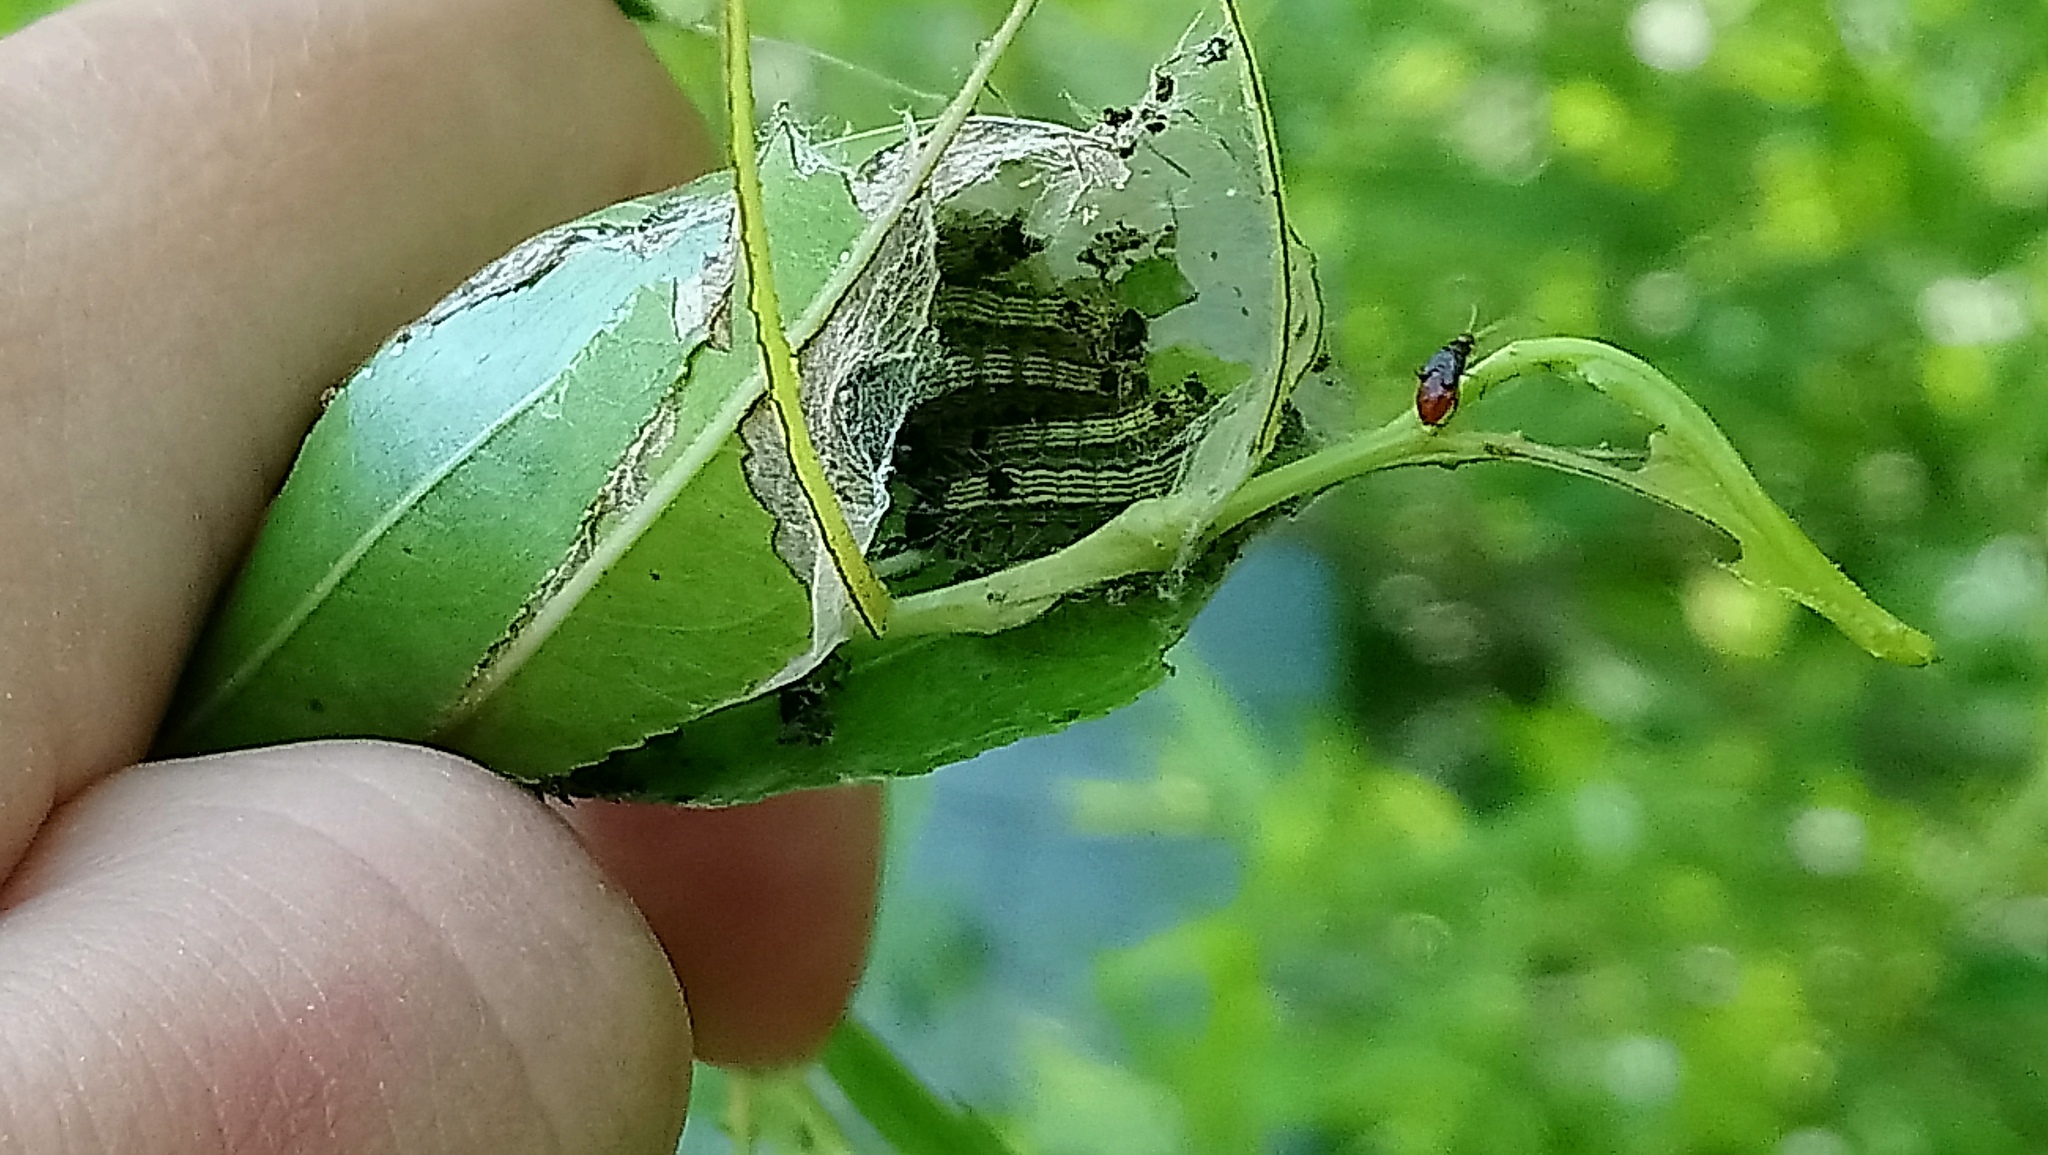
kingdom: Animalia
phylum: Arthropoda
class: Insecta
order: Lepidoptera
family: Notodontidae
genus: Clostera
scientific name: Clostera inclusa
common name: Angle-lined prominent
